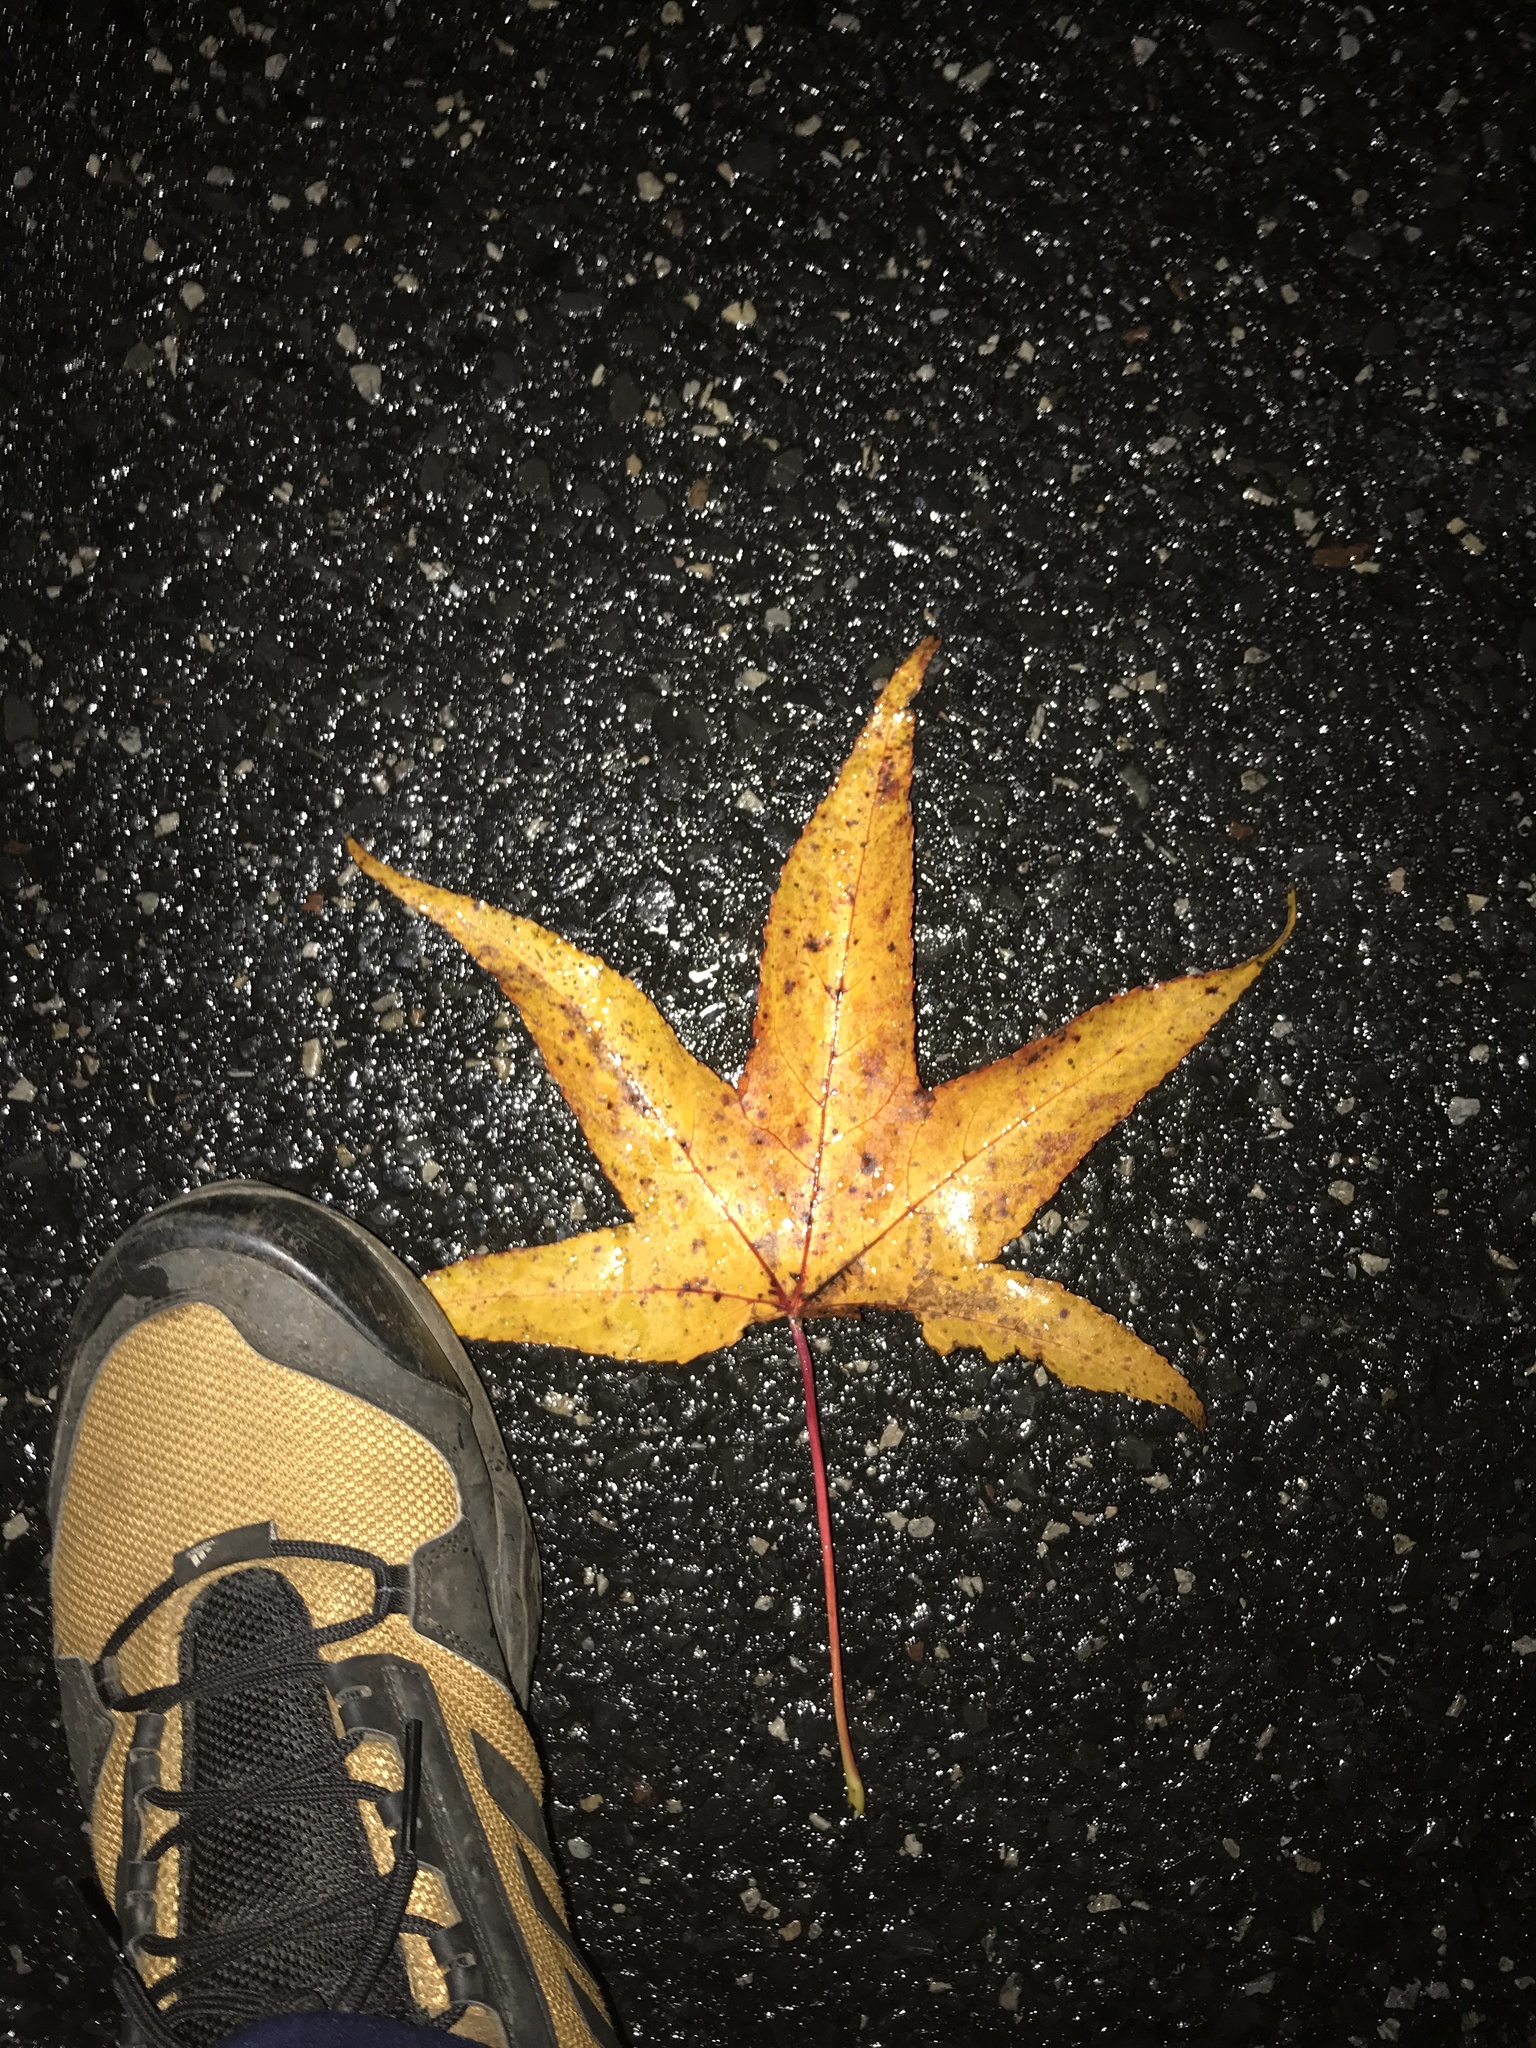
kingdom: Plantae
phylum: Tracheophyta
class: Magnoliopsida
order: Saxifragales
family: Altingiaceae
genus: Liquidambar
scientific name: Liquidambar styraciflua
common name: Sweet gum
